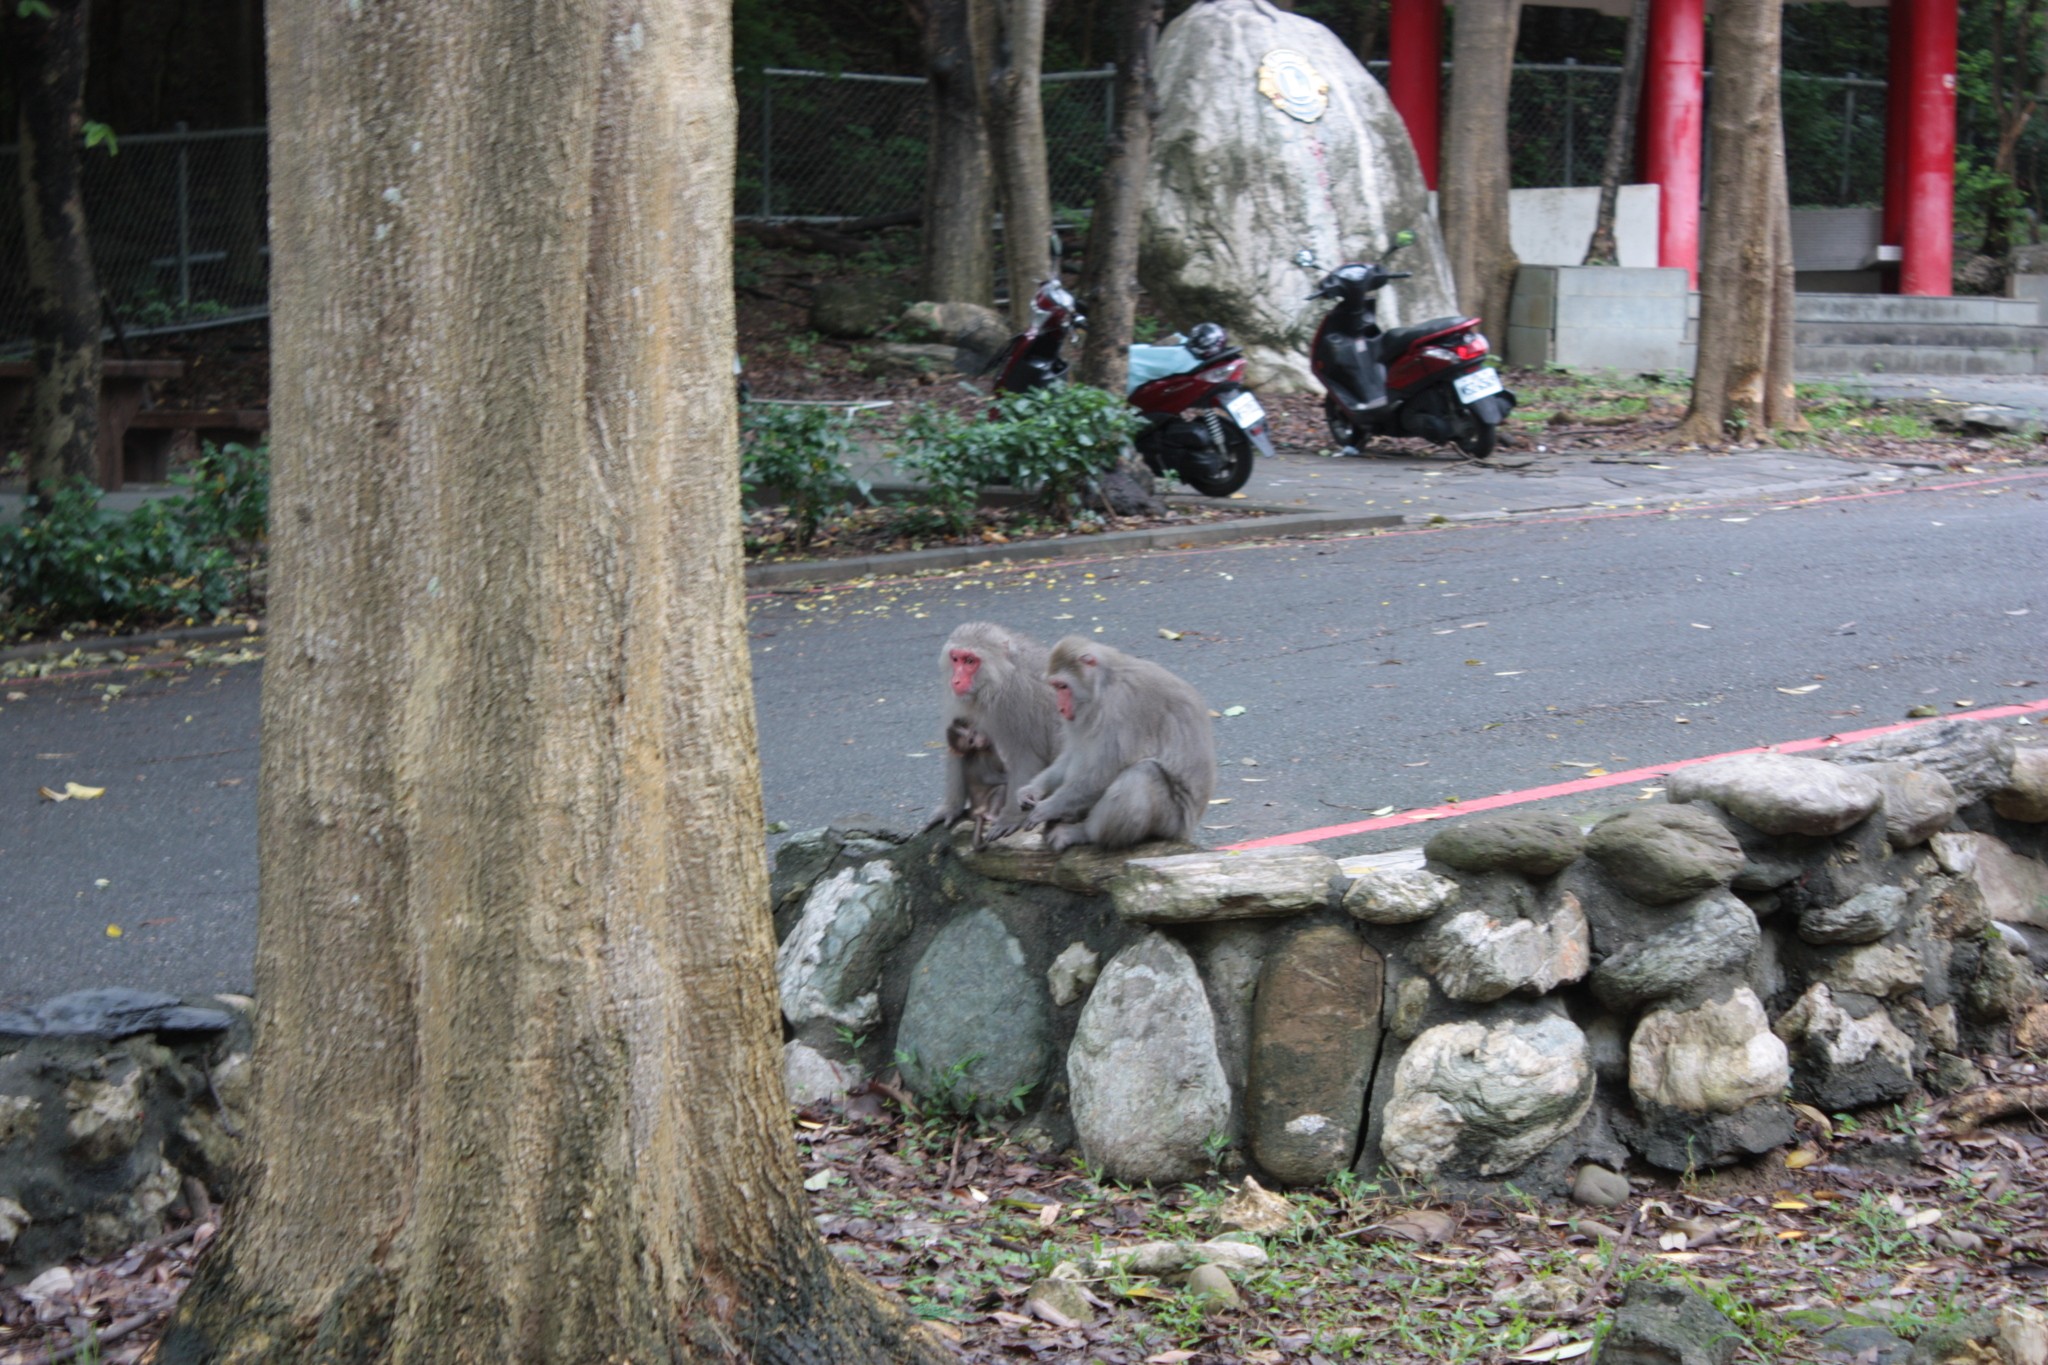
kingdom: Animalia
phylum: Chordata
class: Mammalia
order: Primates
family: Cercopithecidae
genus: Macaca
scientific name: Macaca cyclopis
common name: Formosan rock macaque
